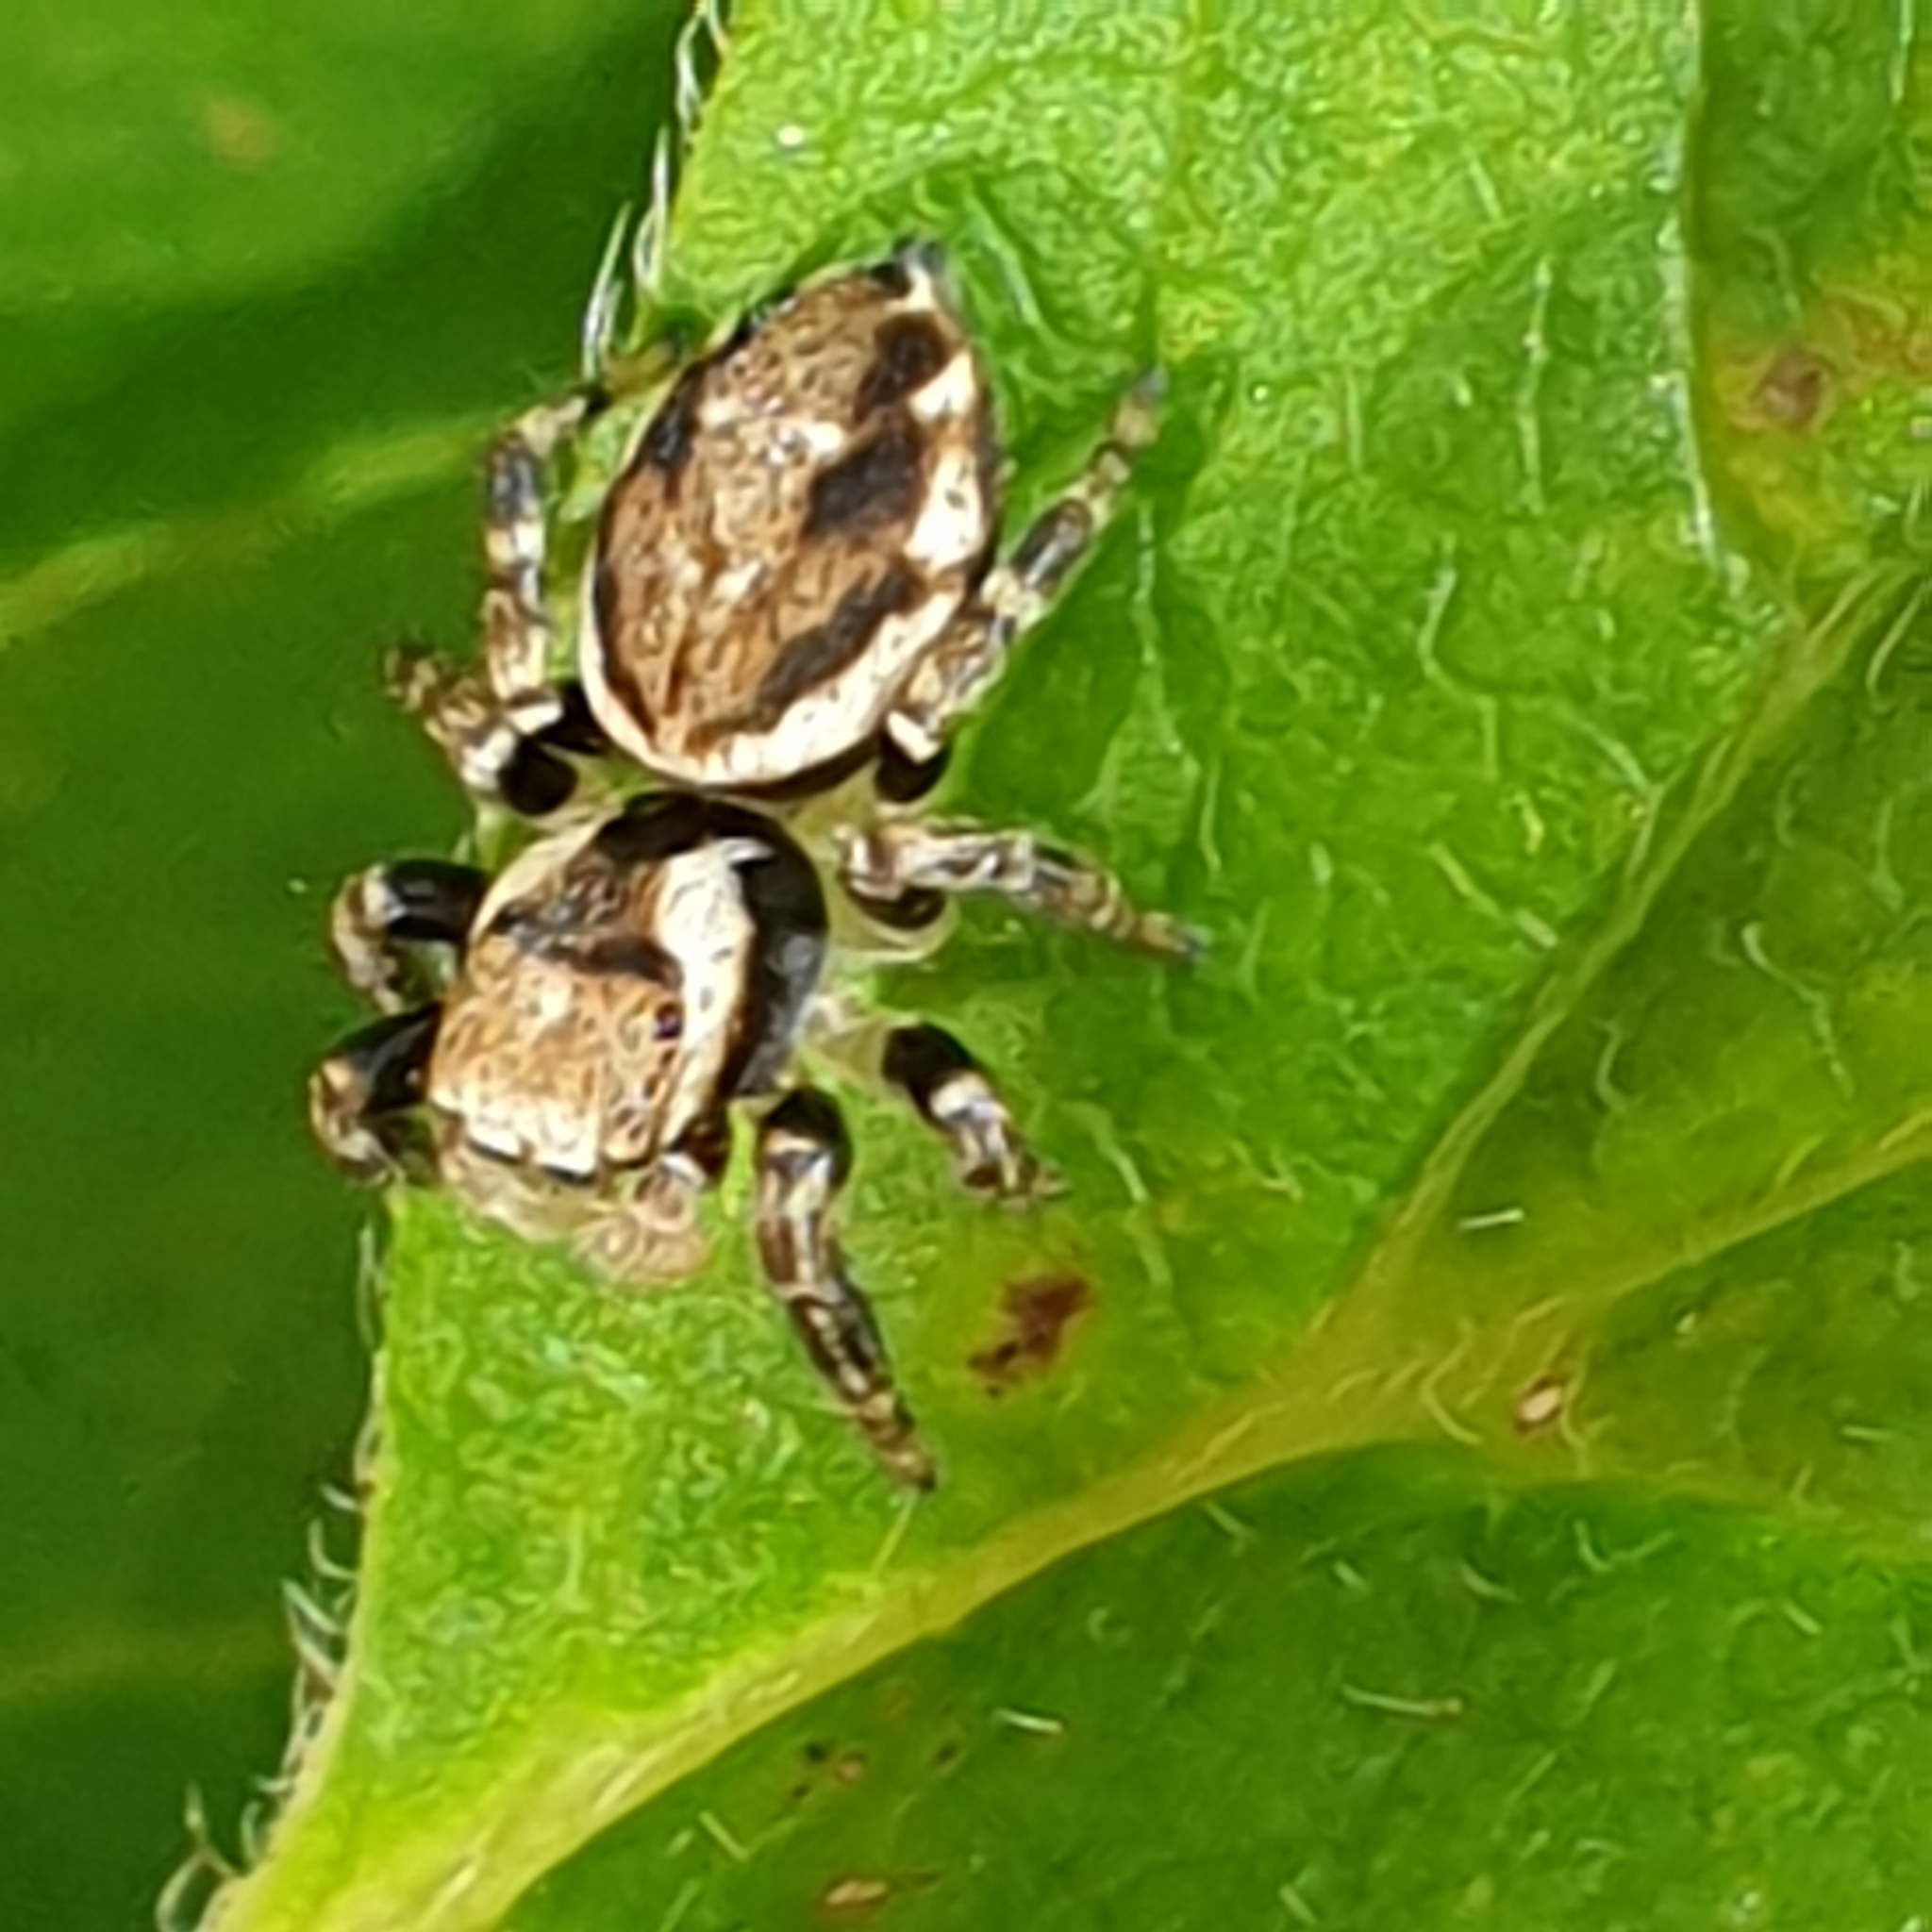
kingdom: Animalia
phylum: Arthropoda
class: Arachnida
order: Araneae
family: Salticidae
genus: Evarcha
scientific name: Evarcha falcata
